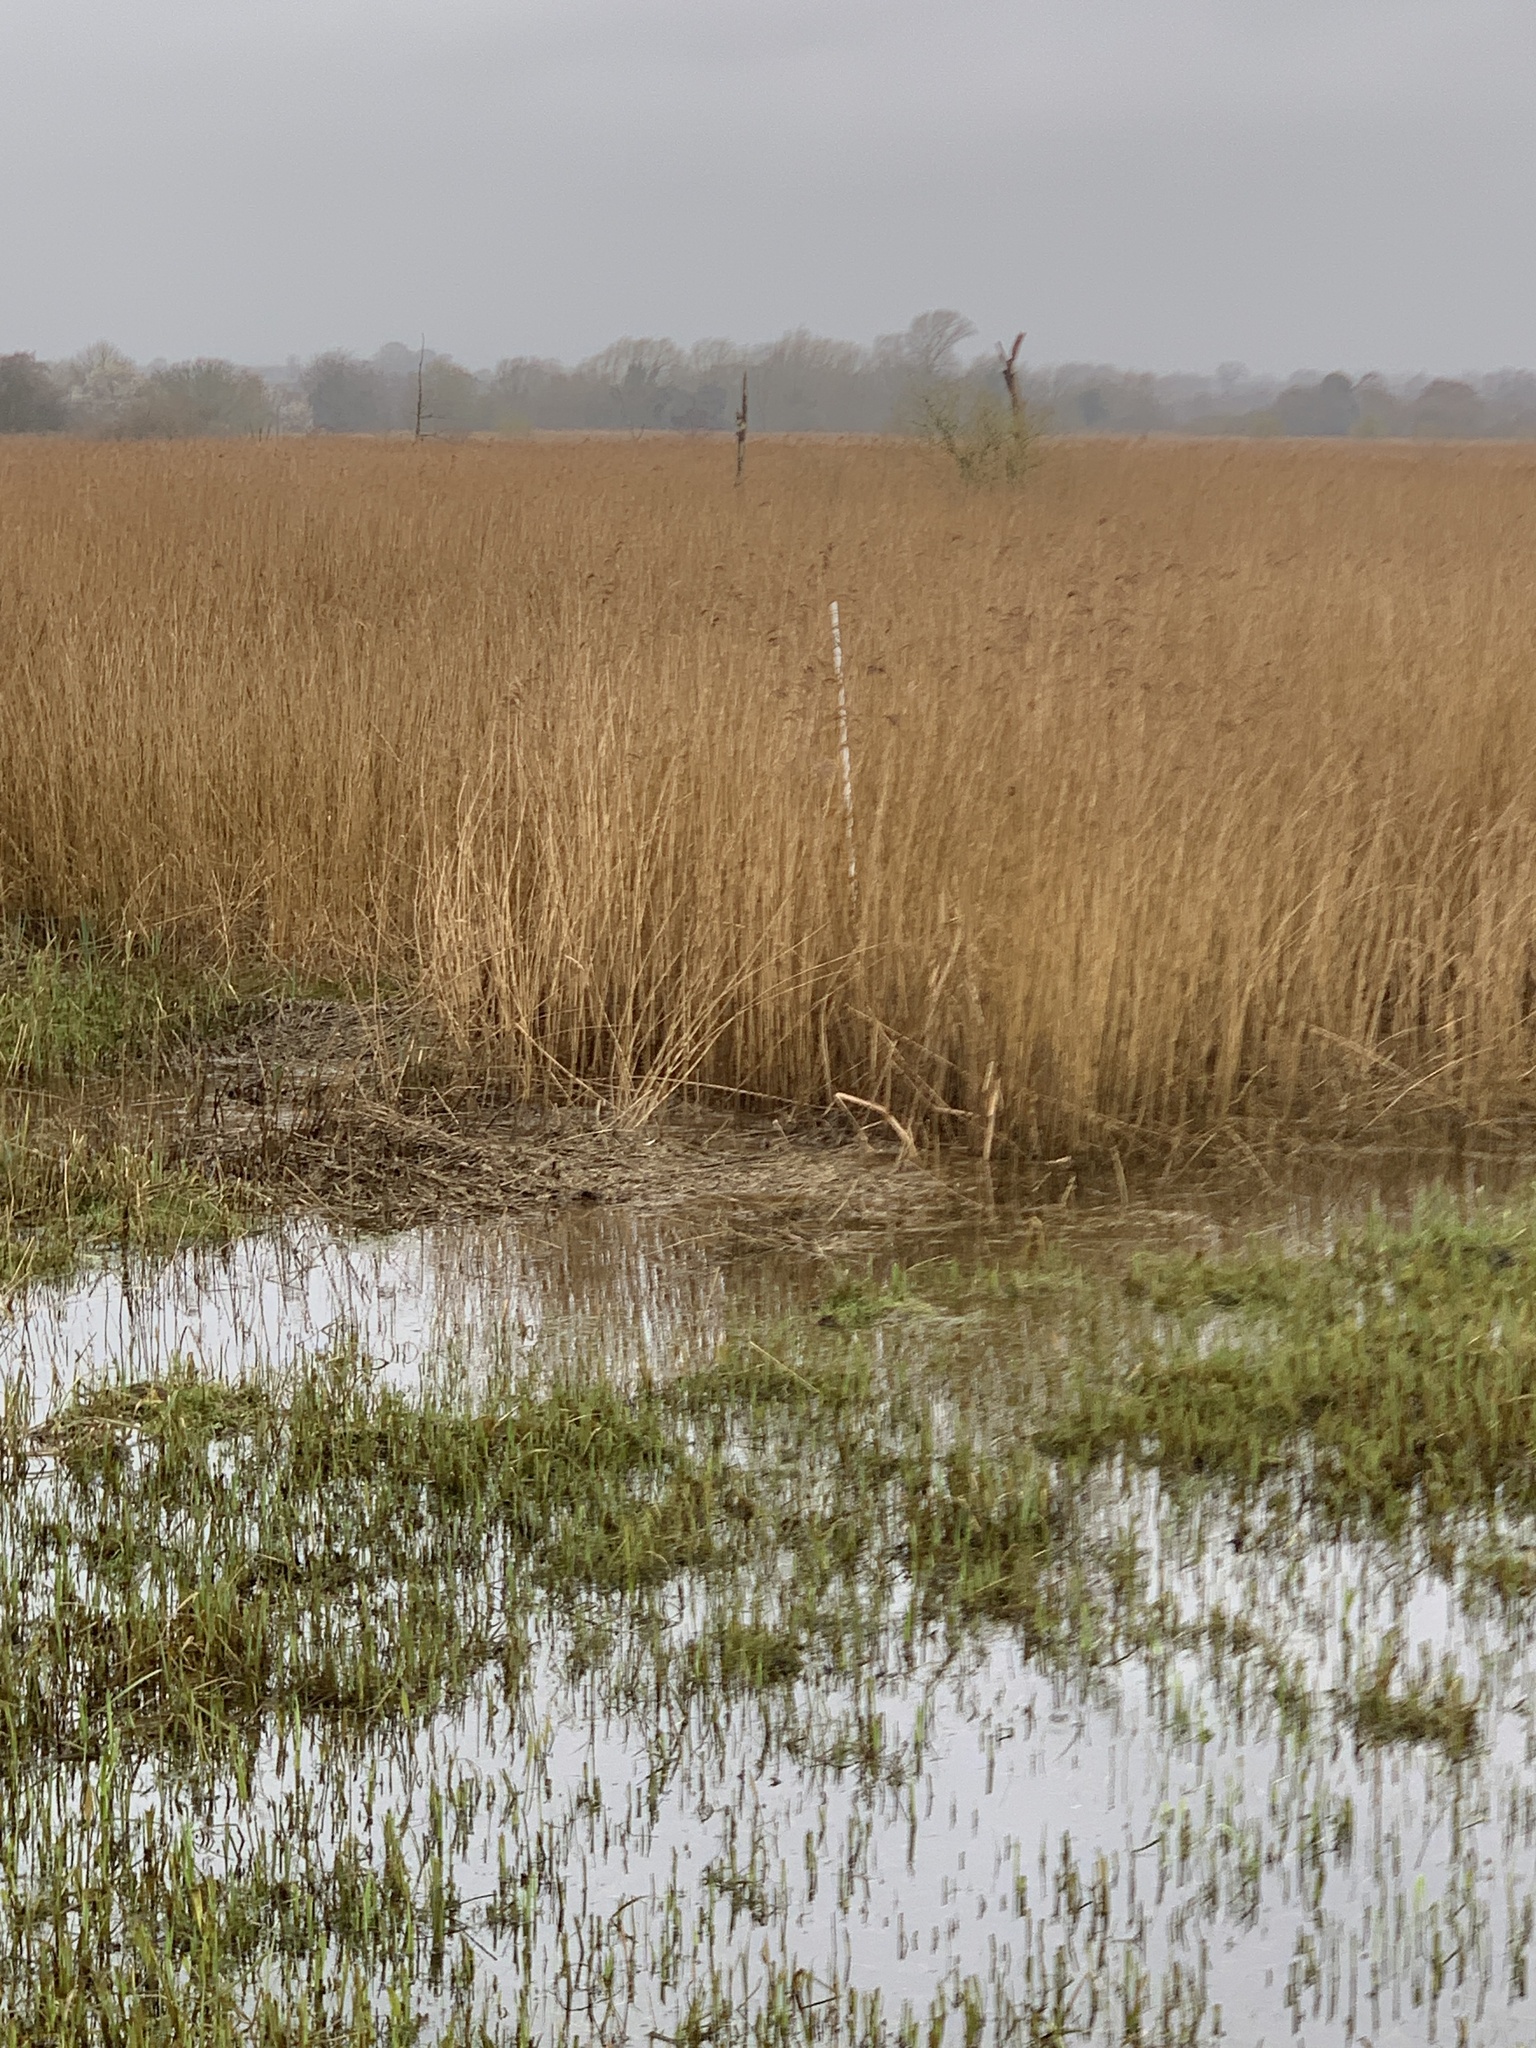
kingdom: Plantae
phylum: Tracheophyta
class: Liliopsida
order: Poales
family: Poaceae
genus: Phragmites
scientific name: Phragmites australis
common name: Common reed
